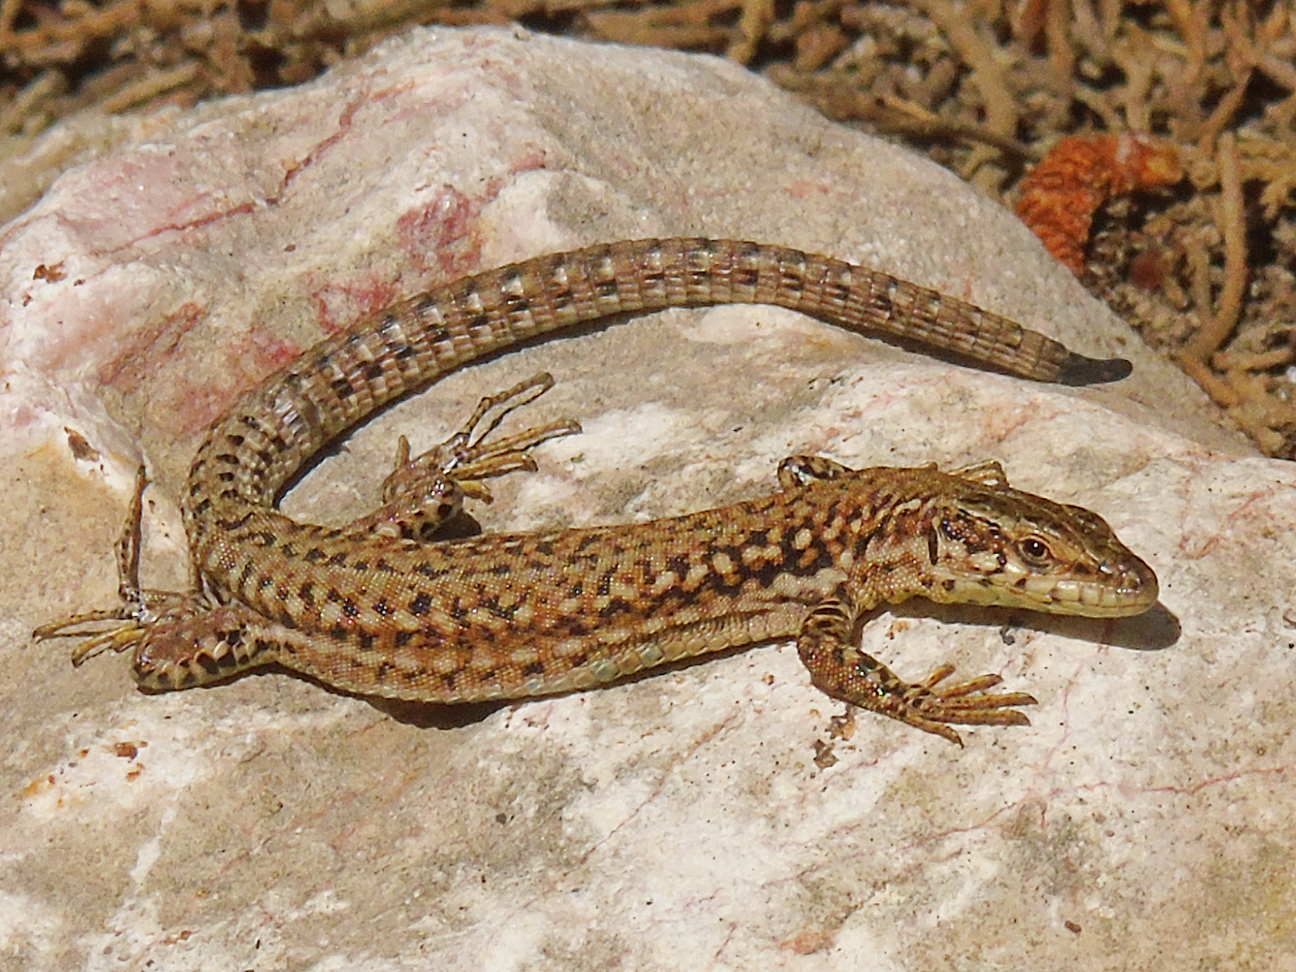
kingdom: Animalia
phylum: Chordata
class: Squamata
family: Lacertidae
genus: Podarcis
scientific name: Podarcis liolepis
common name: Catalonian wall lizard
